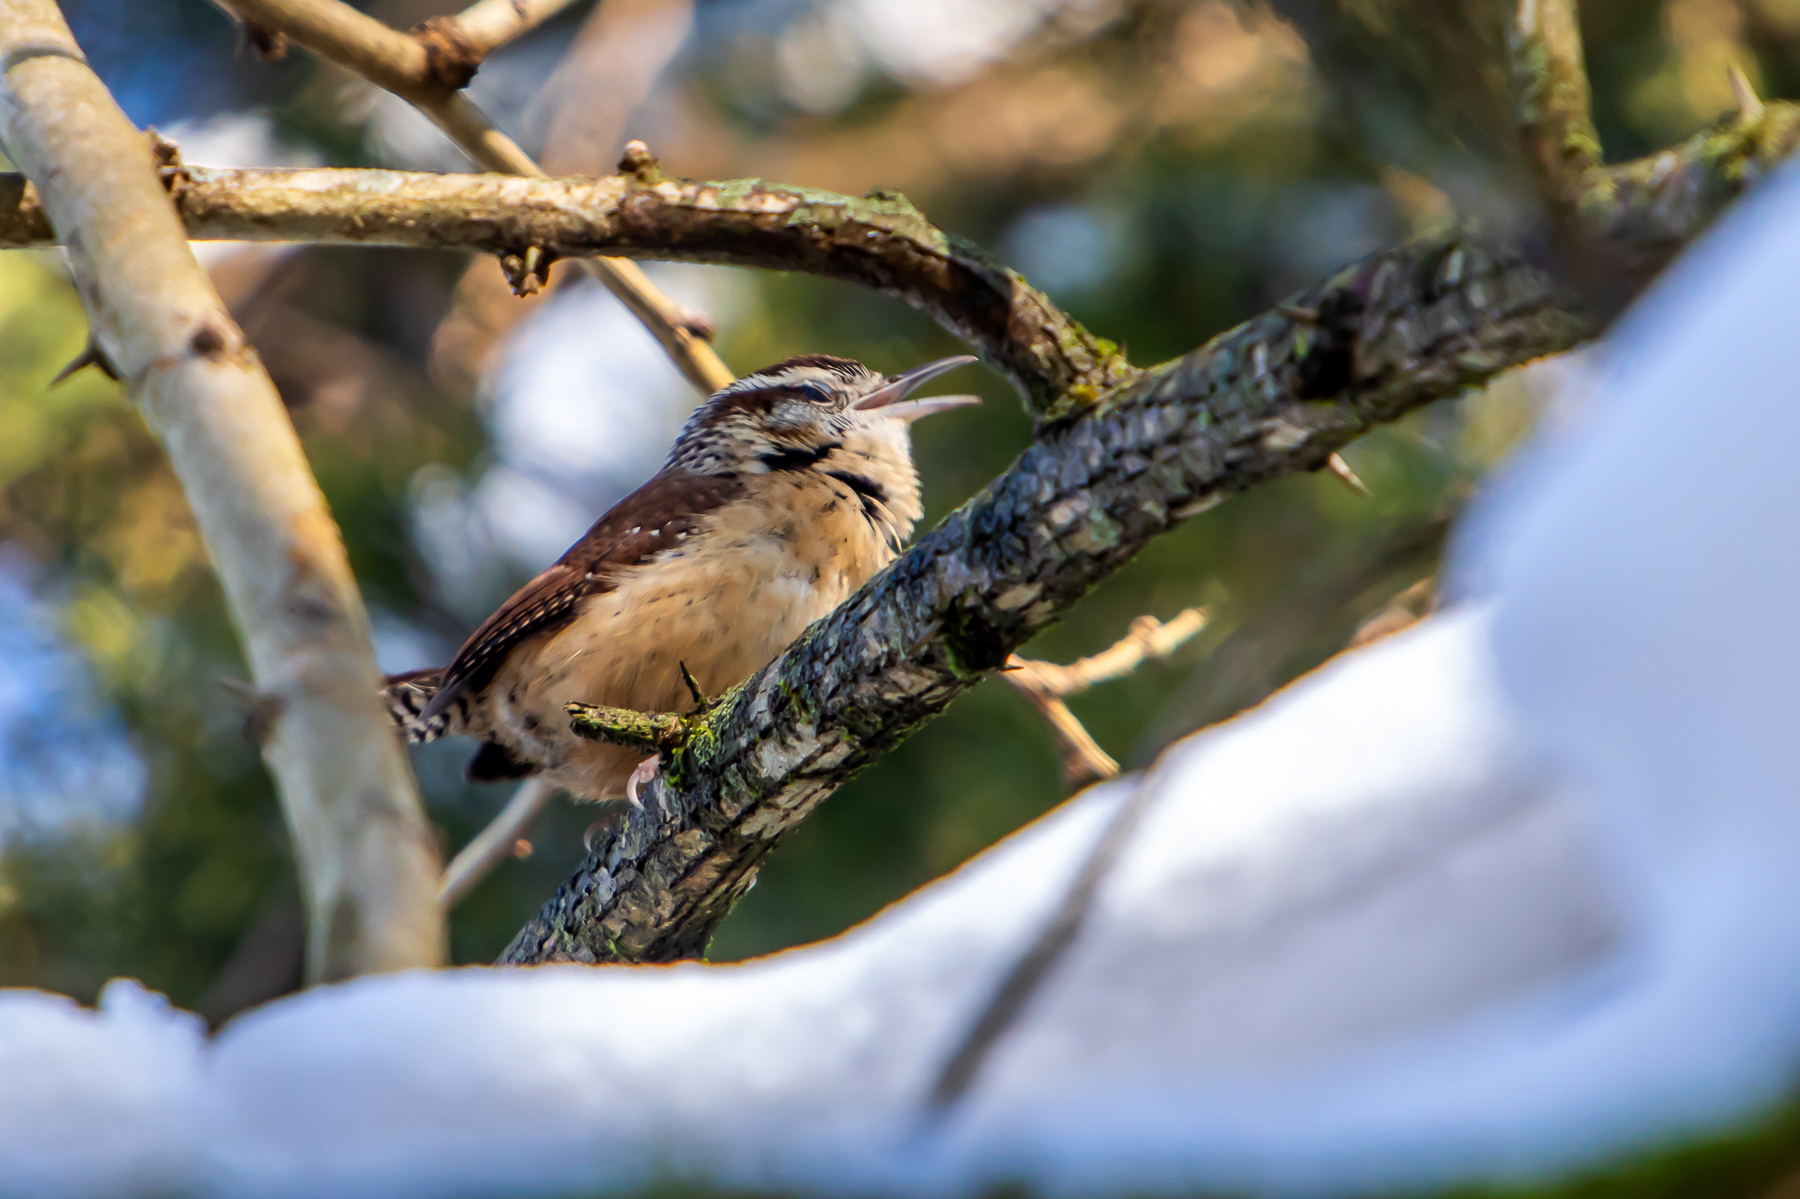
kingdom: Animalia
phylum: Chordata
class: Aves
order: Passeriformes
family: Troglodytidae
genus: Thryothorus
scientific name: Thryothorus ludovicianus
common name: Carolina wren
